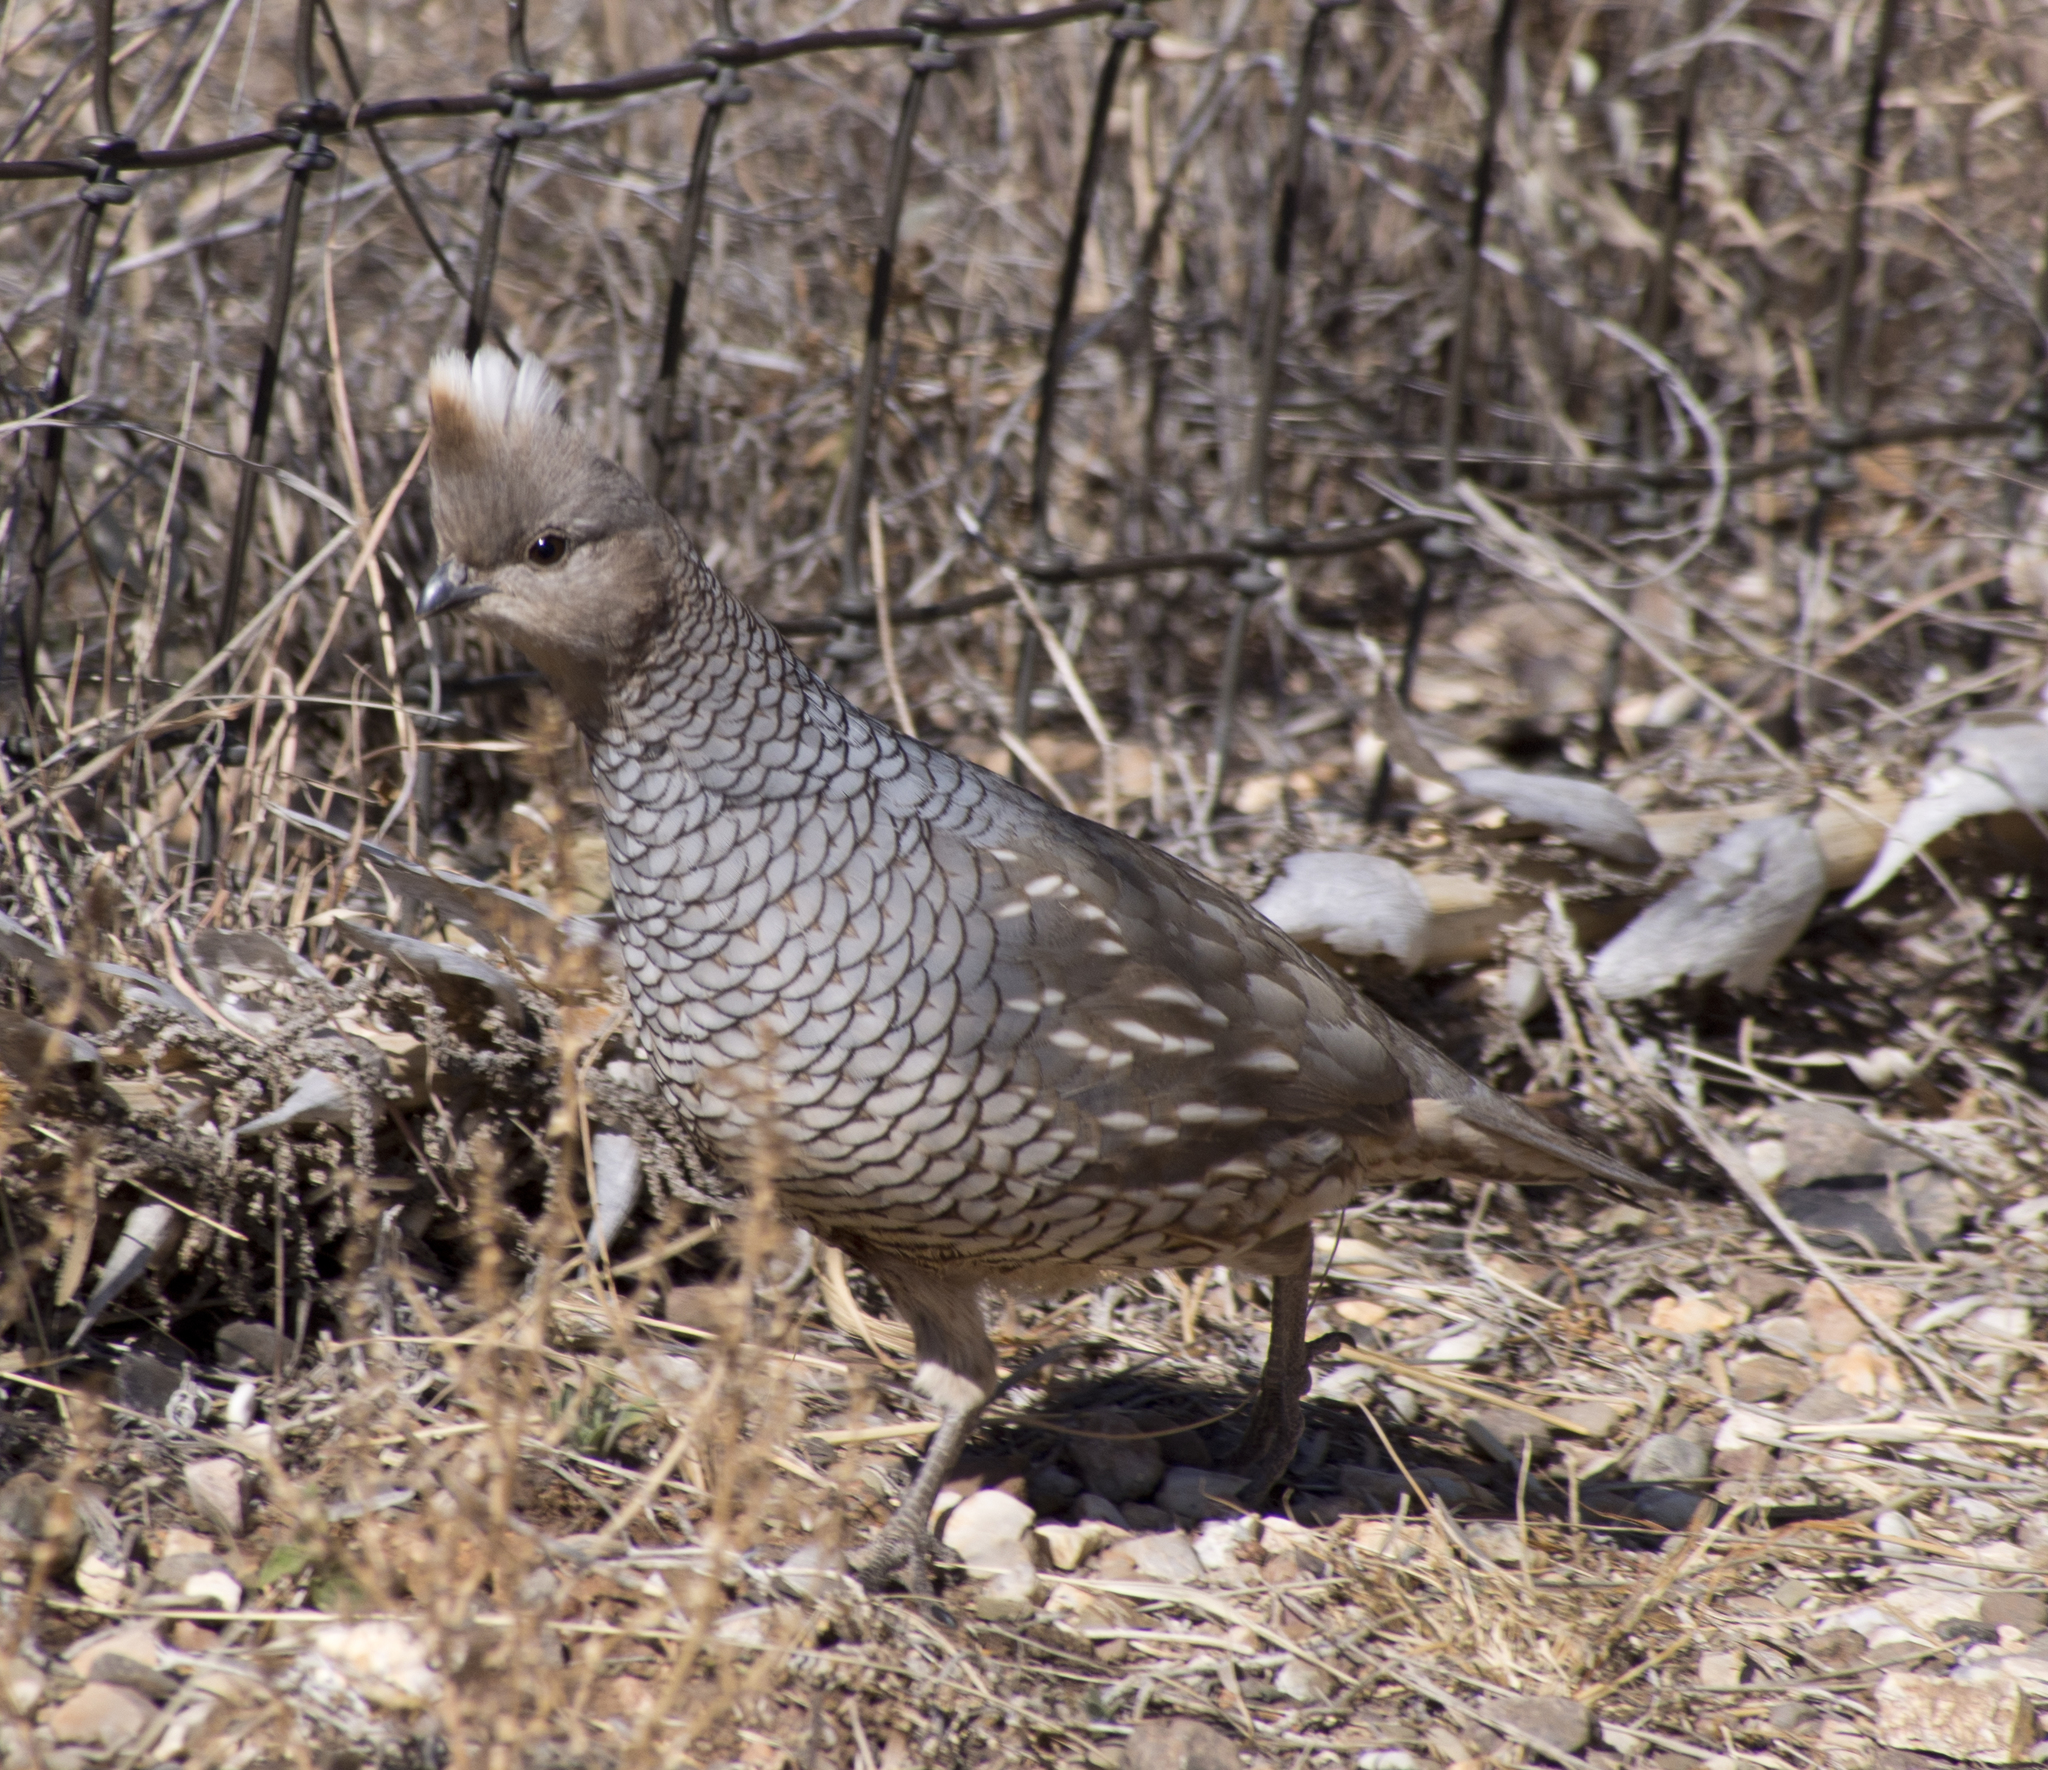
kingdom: Animalia
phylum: Chordata
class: Aves
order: Galliformes
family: Odontophoridae
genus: Callipepla
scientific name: Callipepla squamata
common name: Scaled quail
